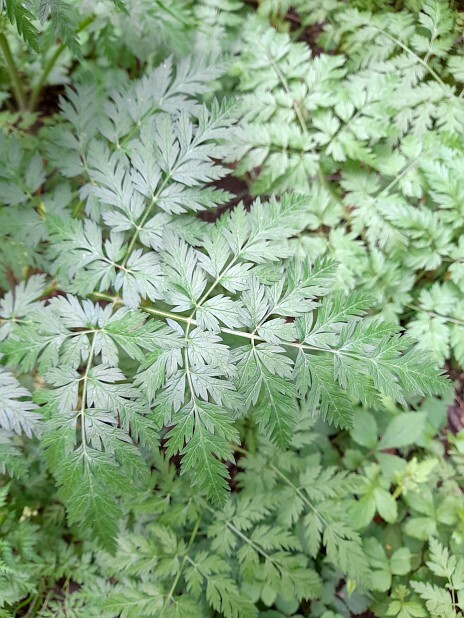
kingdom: Plantae
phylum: Tracheophyta
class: Magnoliopsida
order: Apiales
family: Apiaceae
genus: Anthriscus
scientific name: Anthriscus sylvestris
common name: Cow parsley
